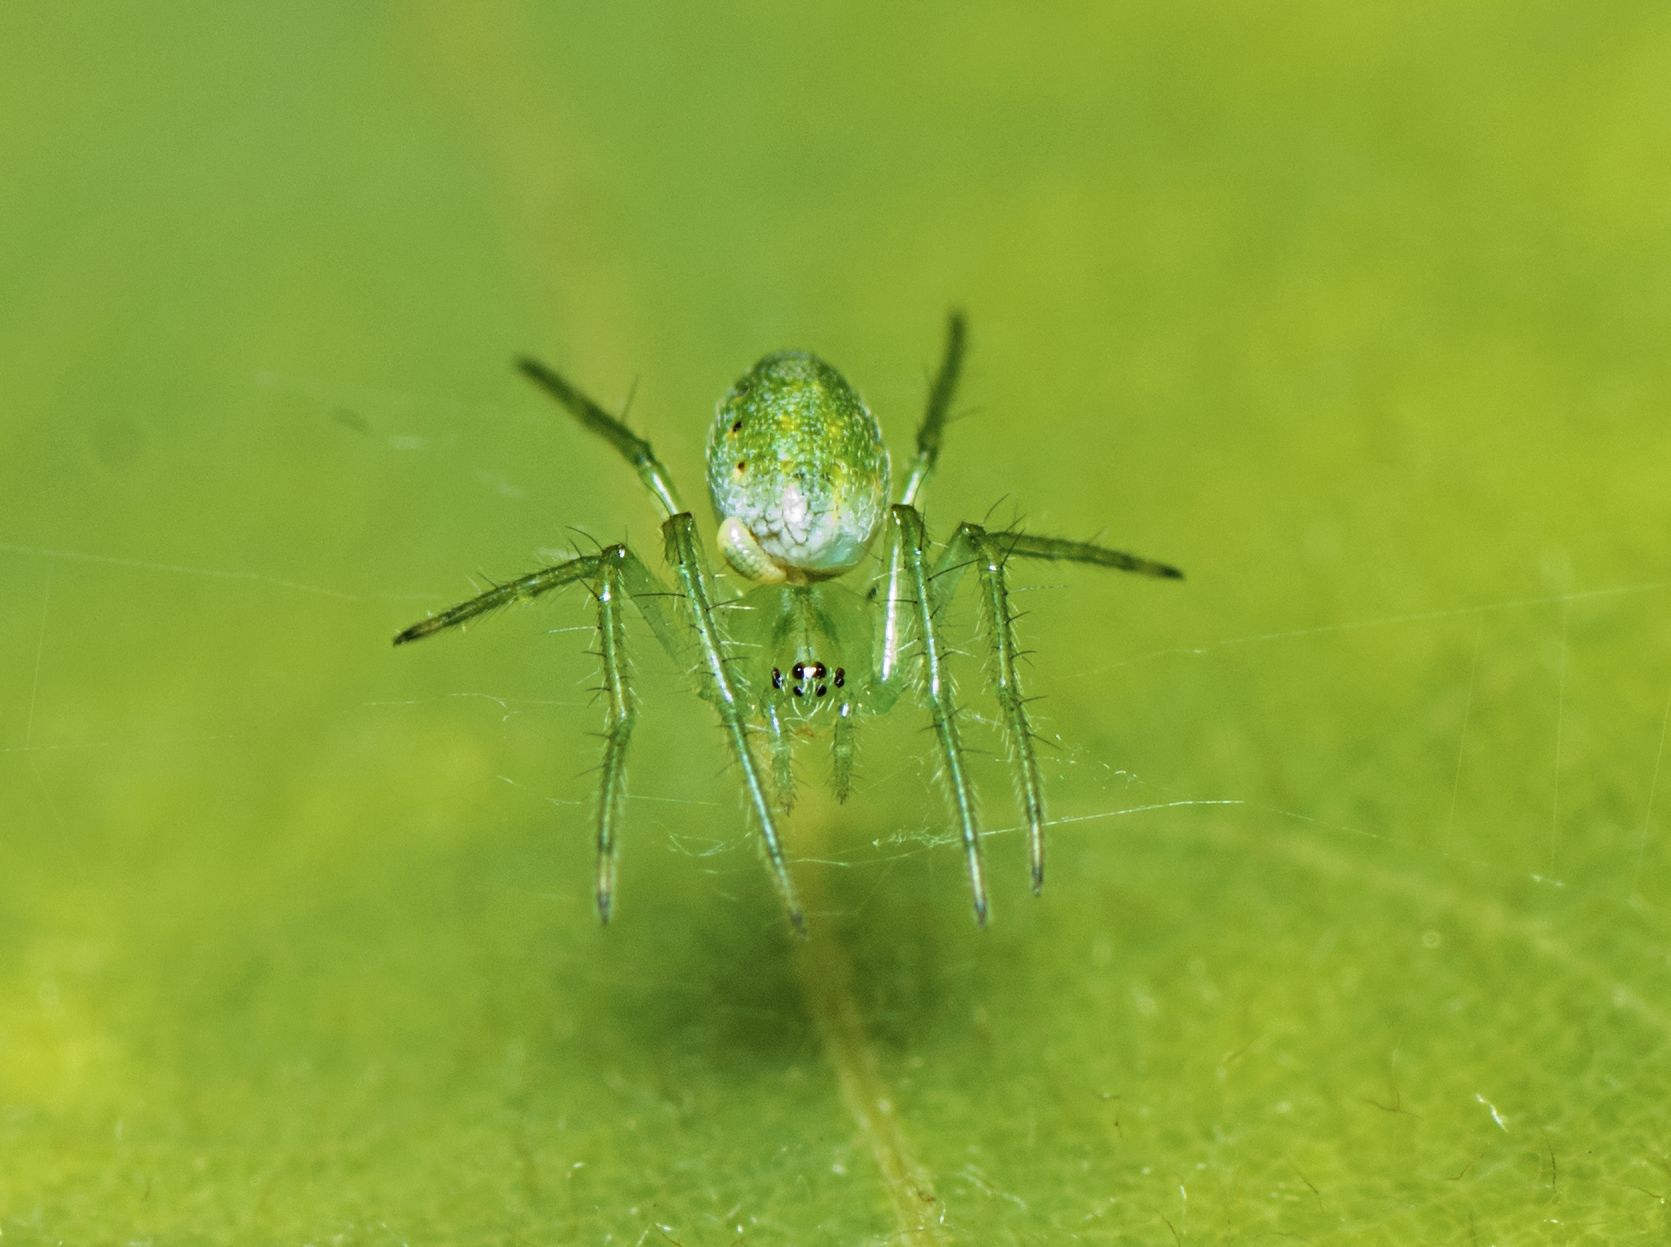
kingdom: Animalia
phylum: Arthropoda
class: Arachnida
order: Araneae
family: Araneidae
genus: Araneus
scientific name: Araneus talipedatus
